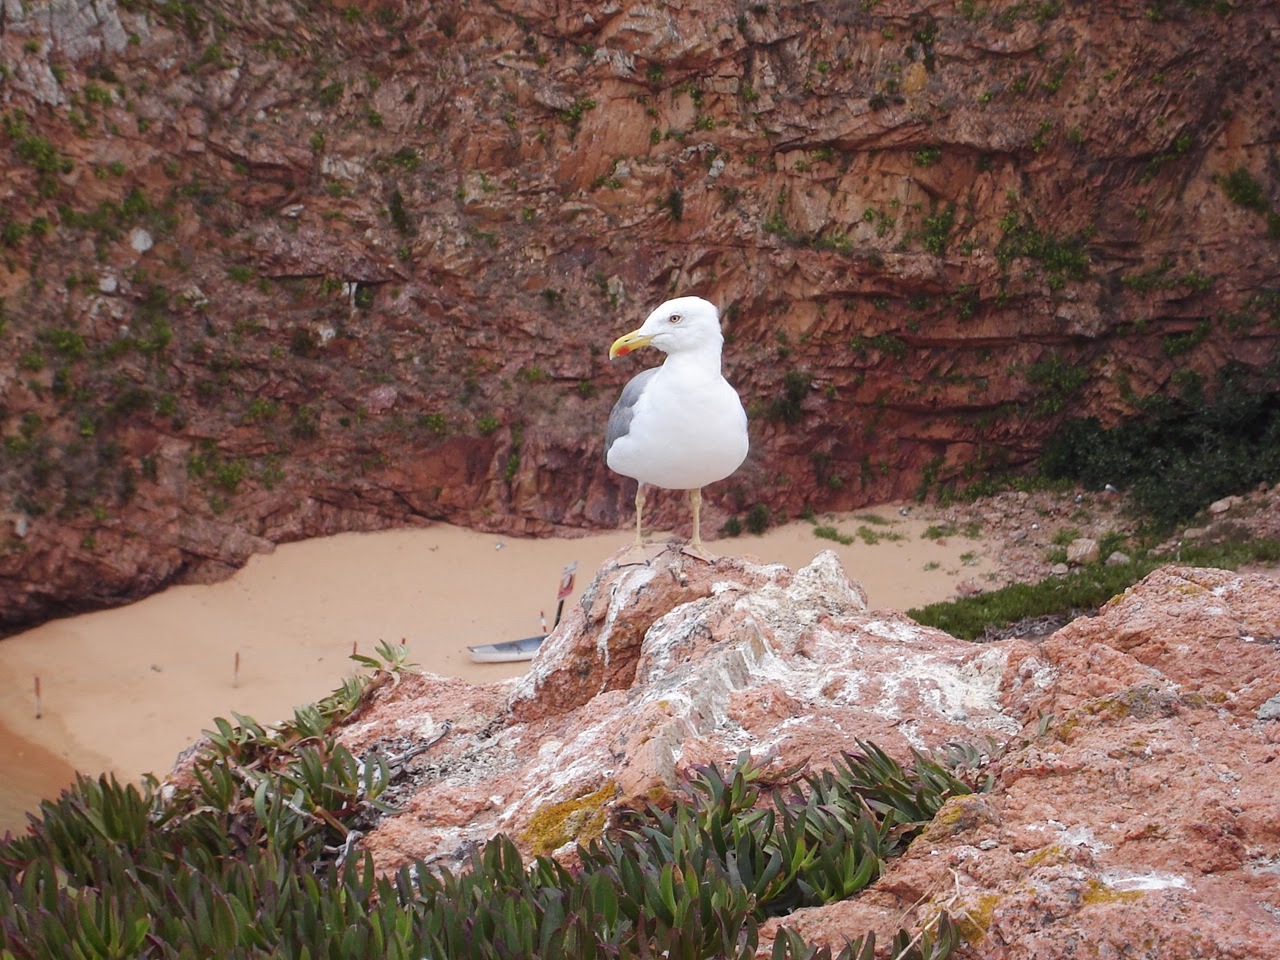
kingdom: Animalia
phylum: Chordata
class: Aves
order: Charadriiformes
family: Laridae
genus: Larus
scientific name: Larus michahellis
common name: Yellow-legged gull
